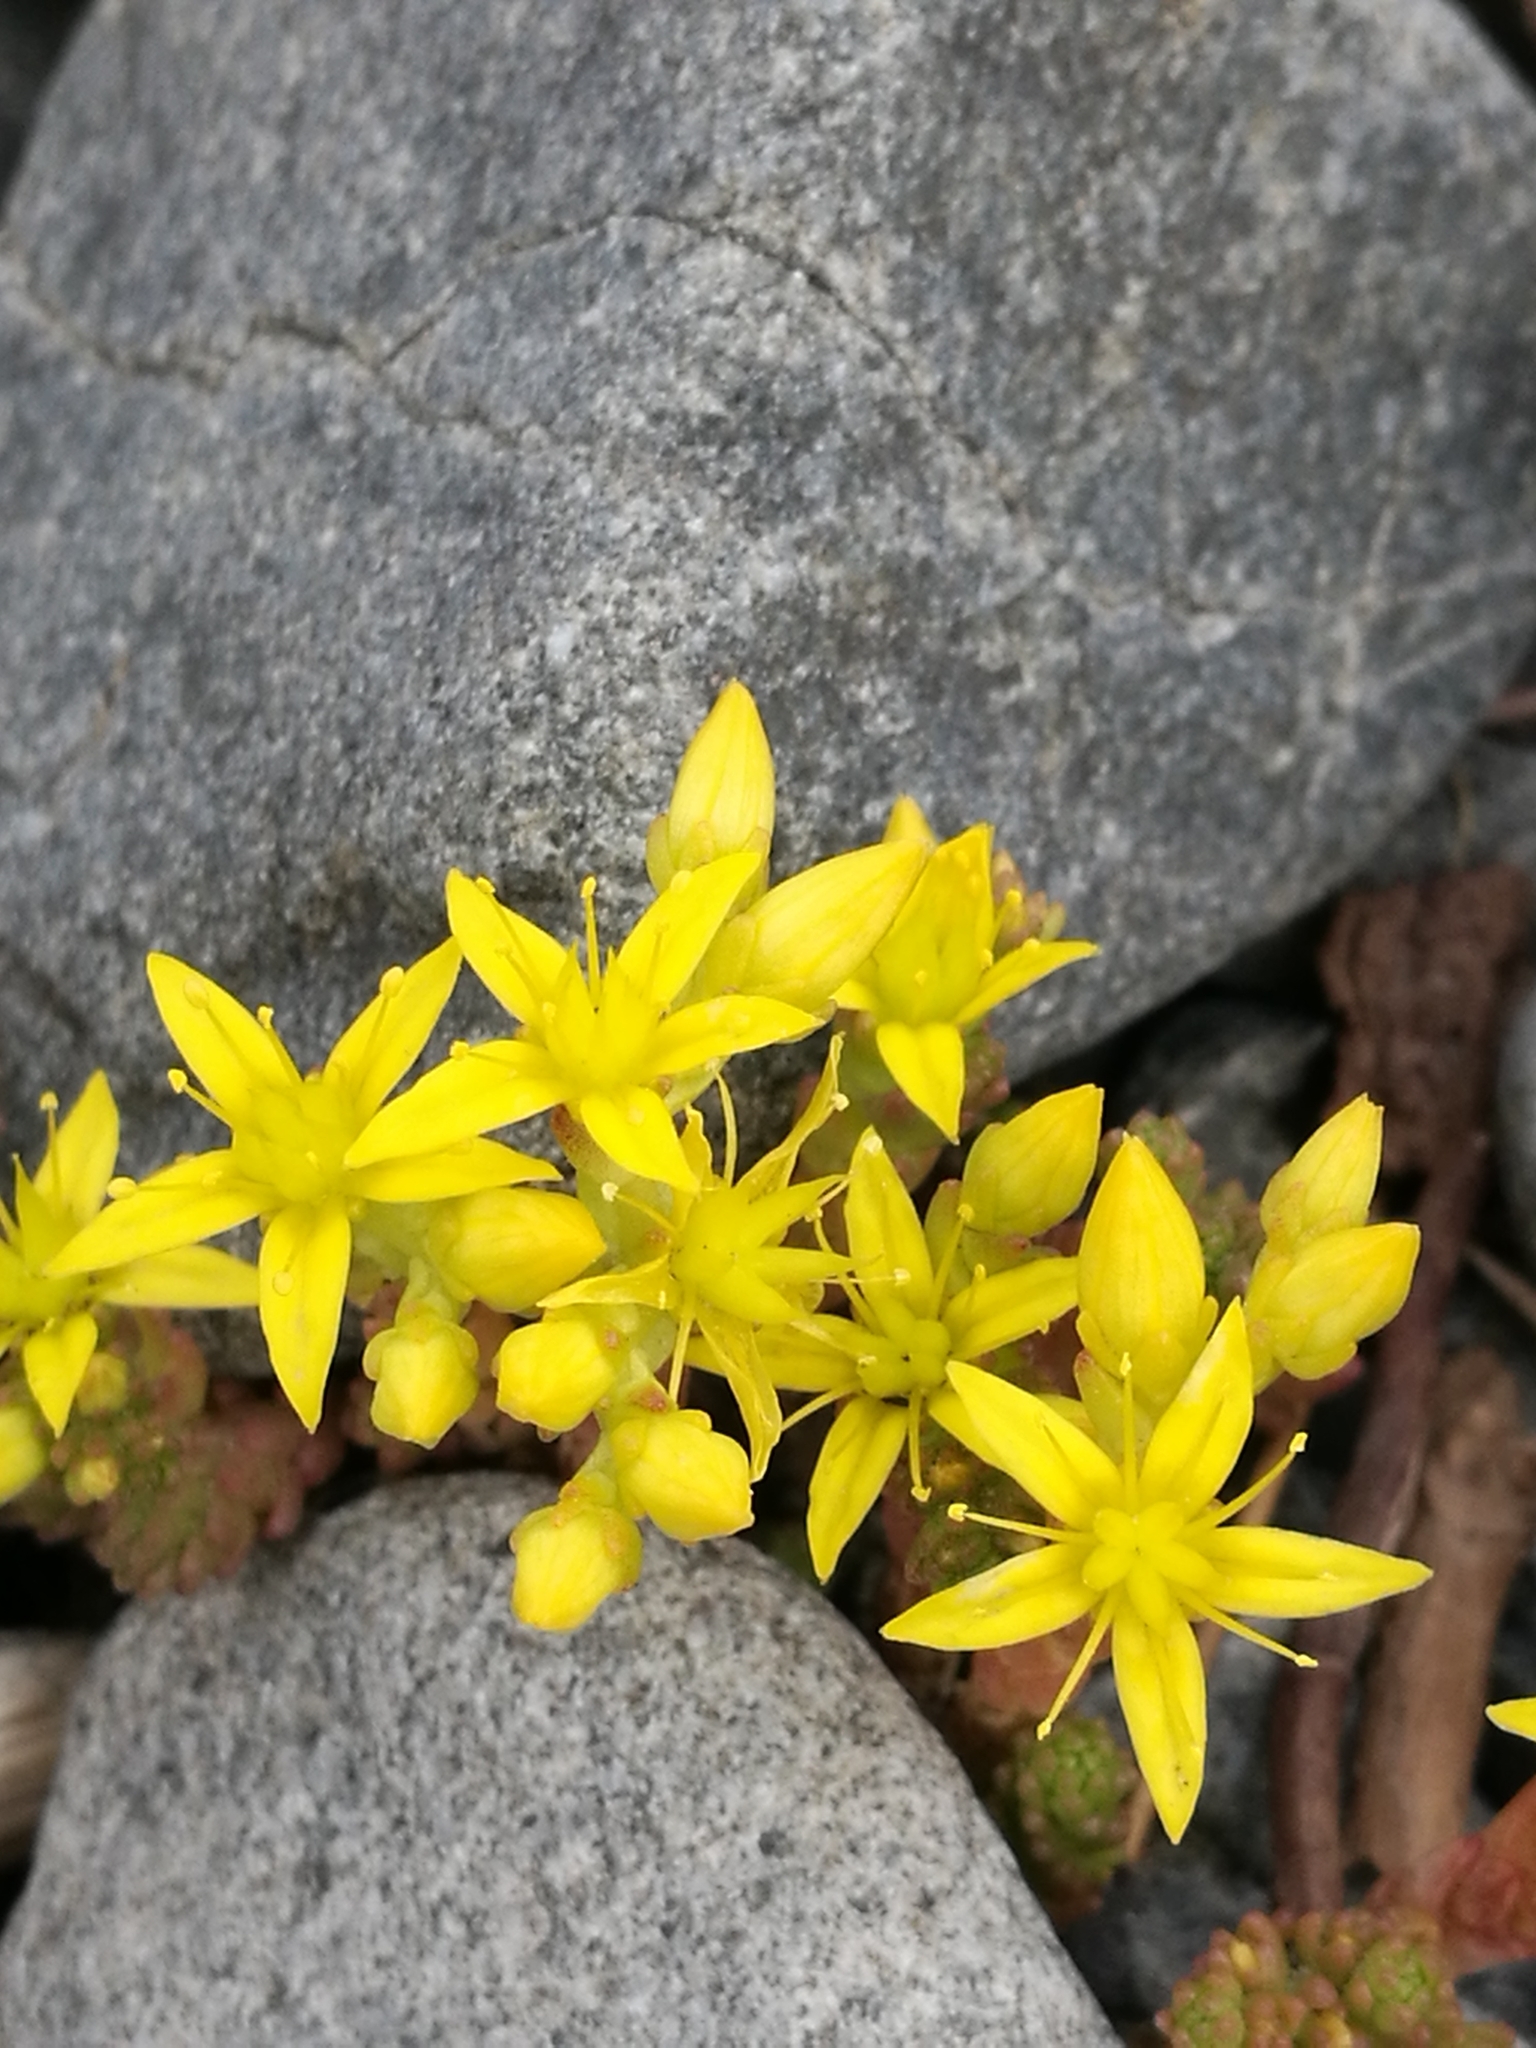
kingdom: Plantae
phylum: Tracheophyta
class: Magnoliopsida
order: Saxifragales
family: Crassulaceae
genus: Sedum
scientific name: Sedum acre
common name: Biting stonecrop
